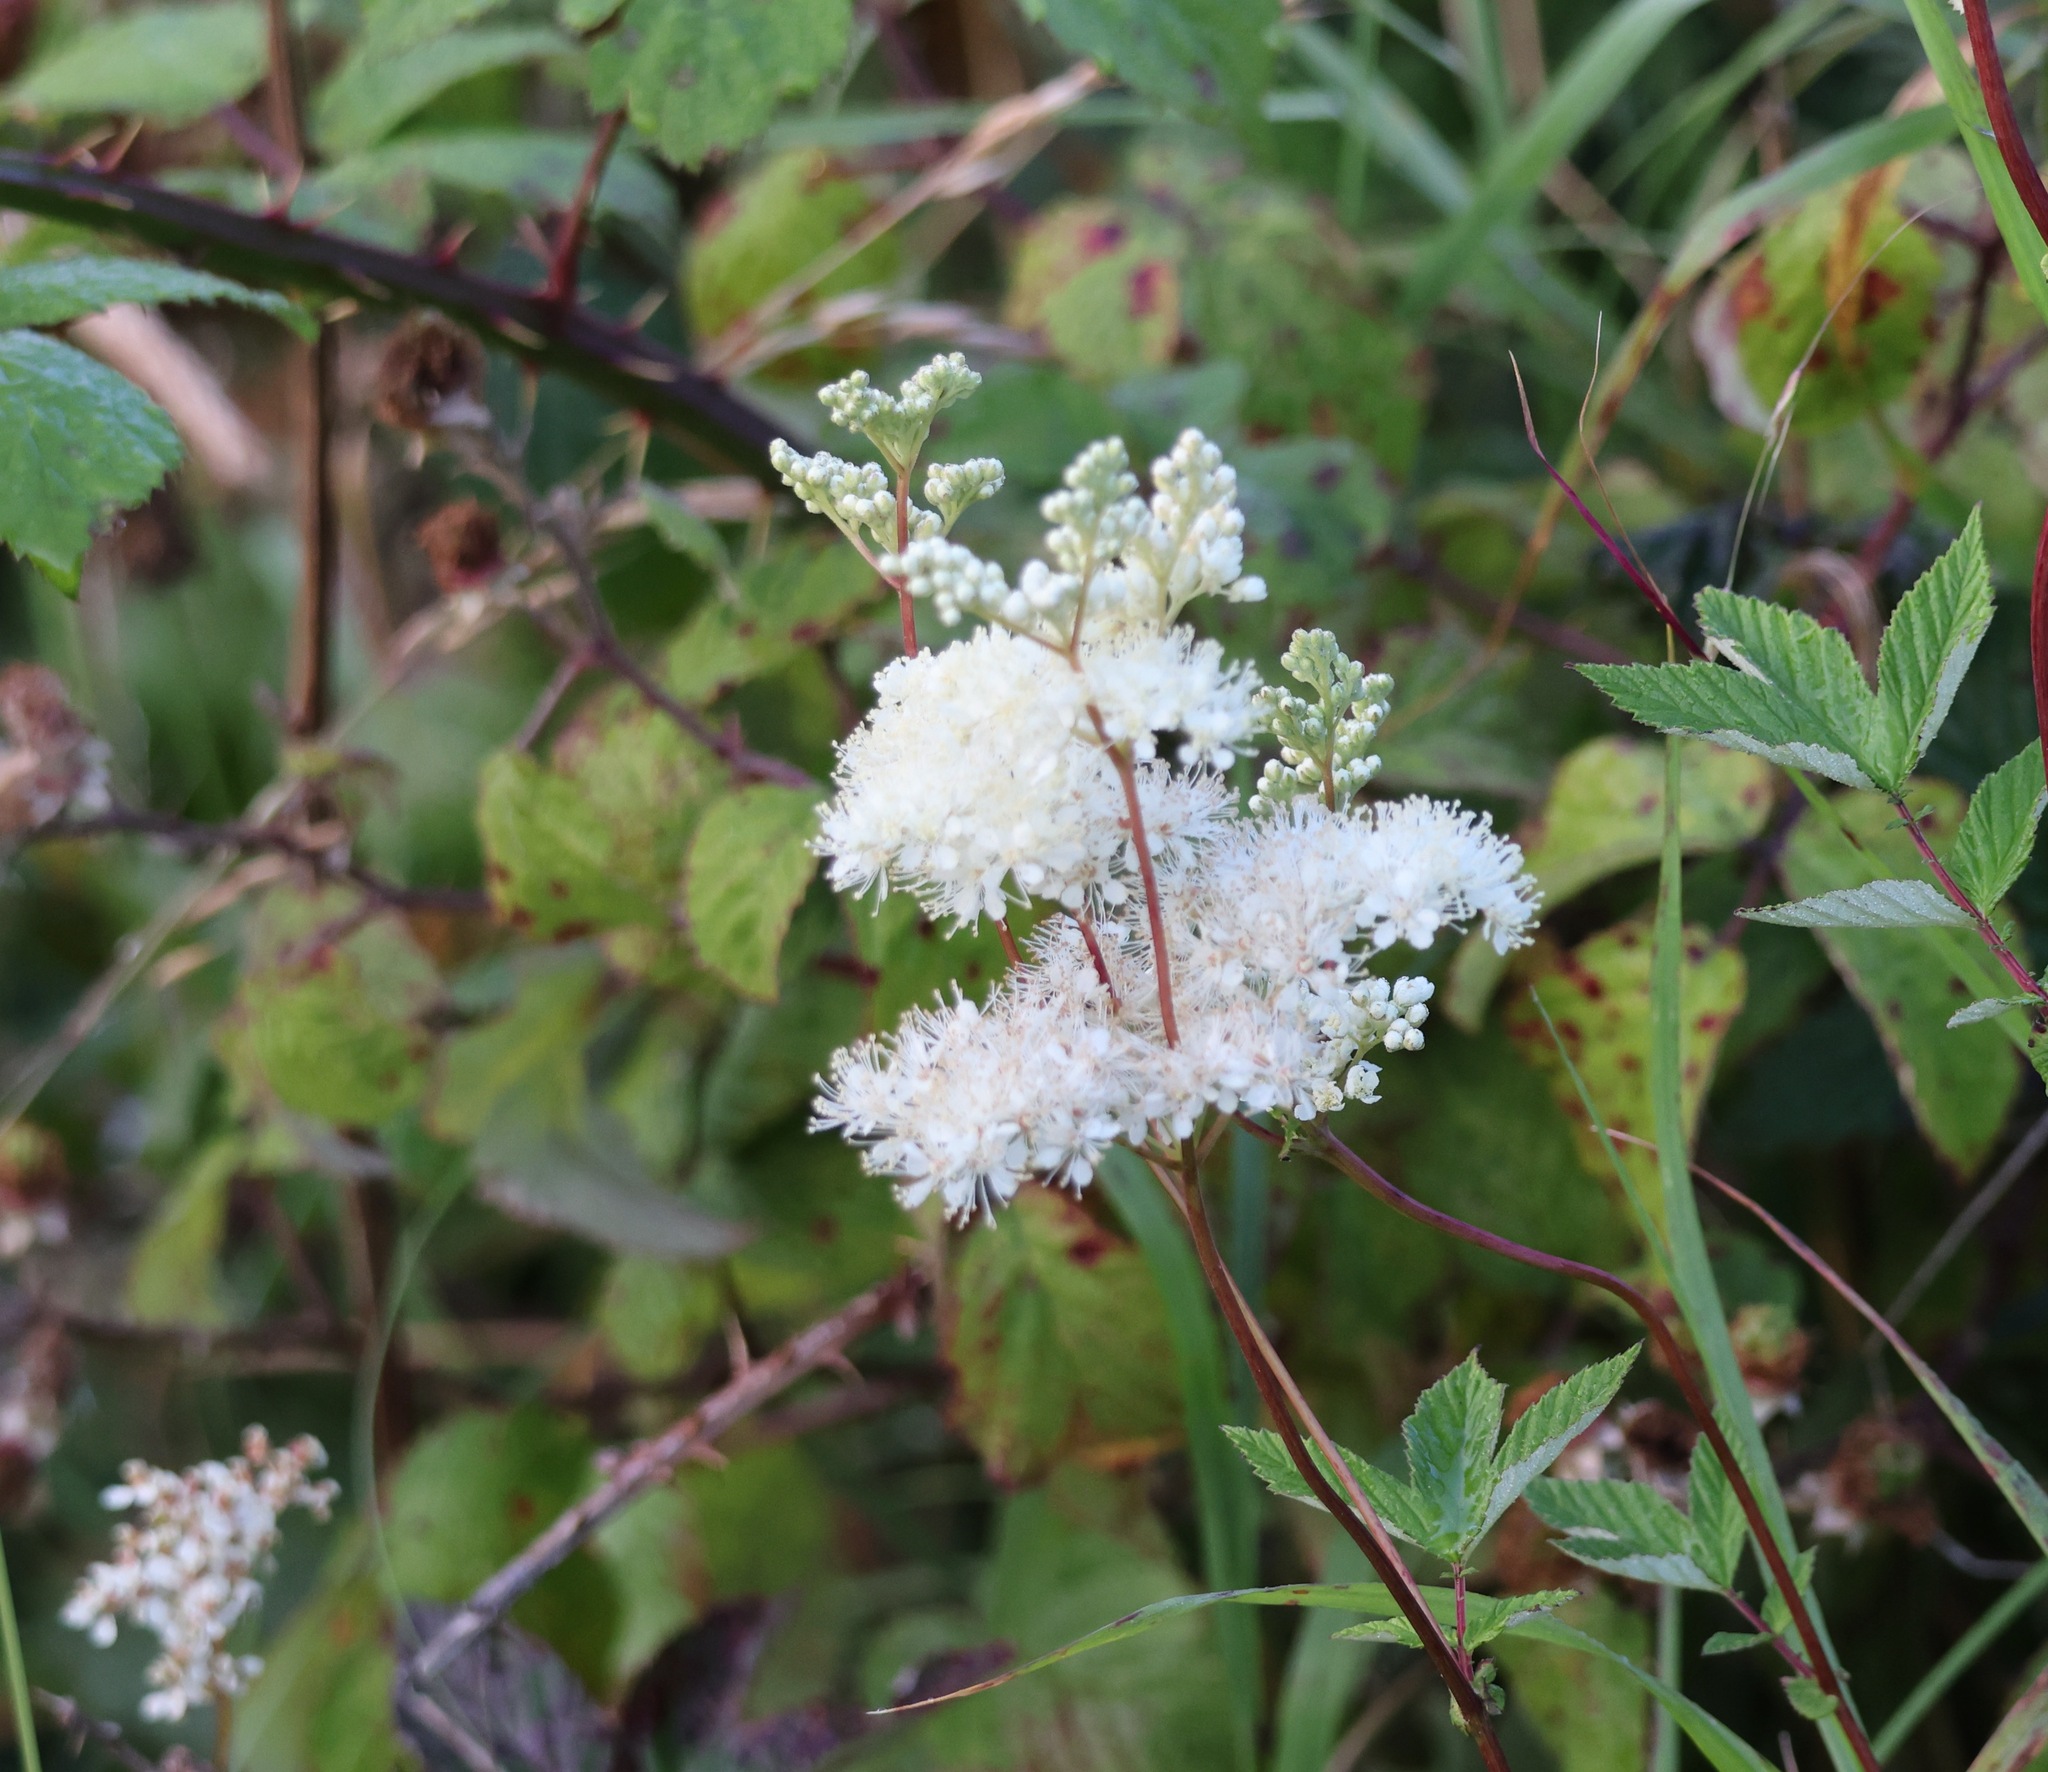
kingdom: Plantae
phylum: Tracheophyta
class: Magnoliopsida
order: Rosales
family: Rosaceae
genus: Filipendula
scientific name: Filipendula ulmaria
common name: Meadowsweet
